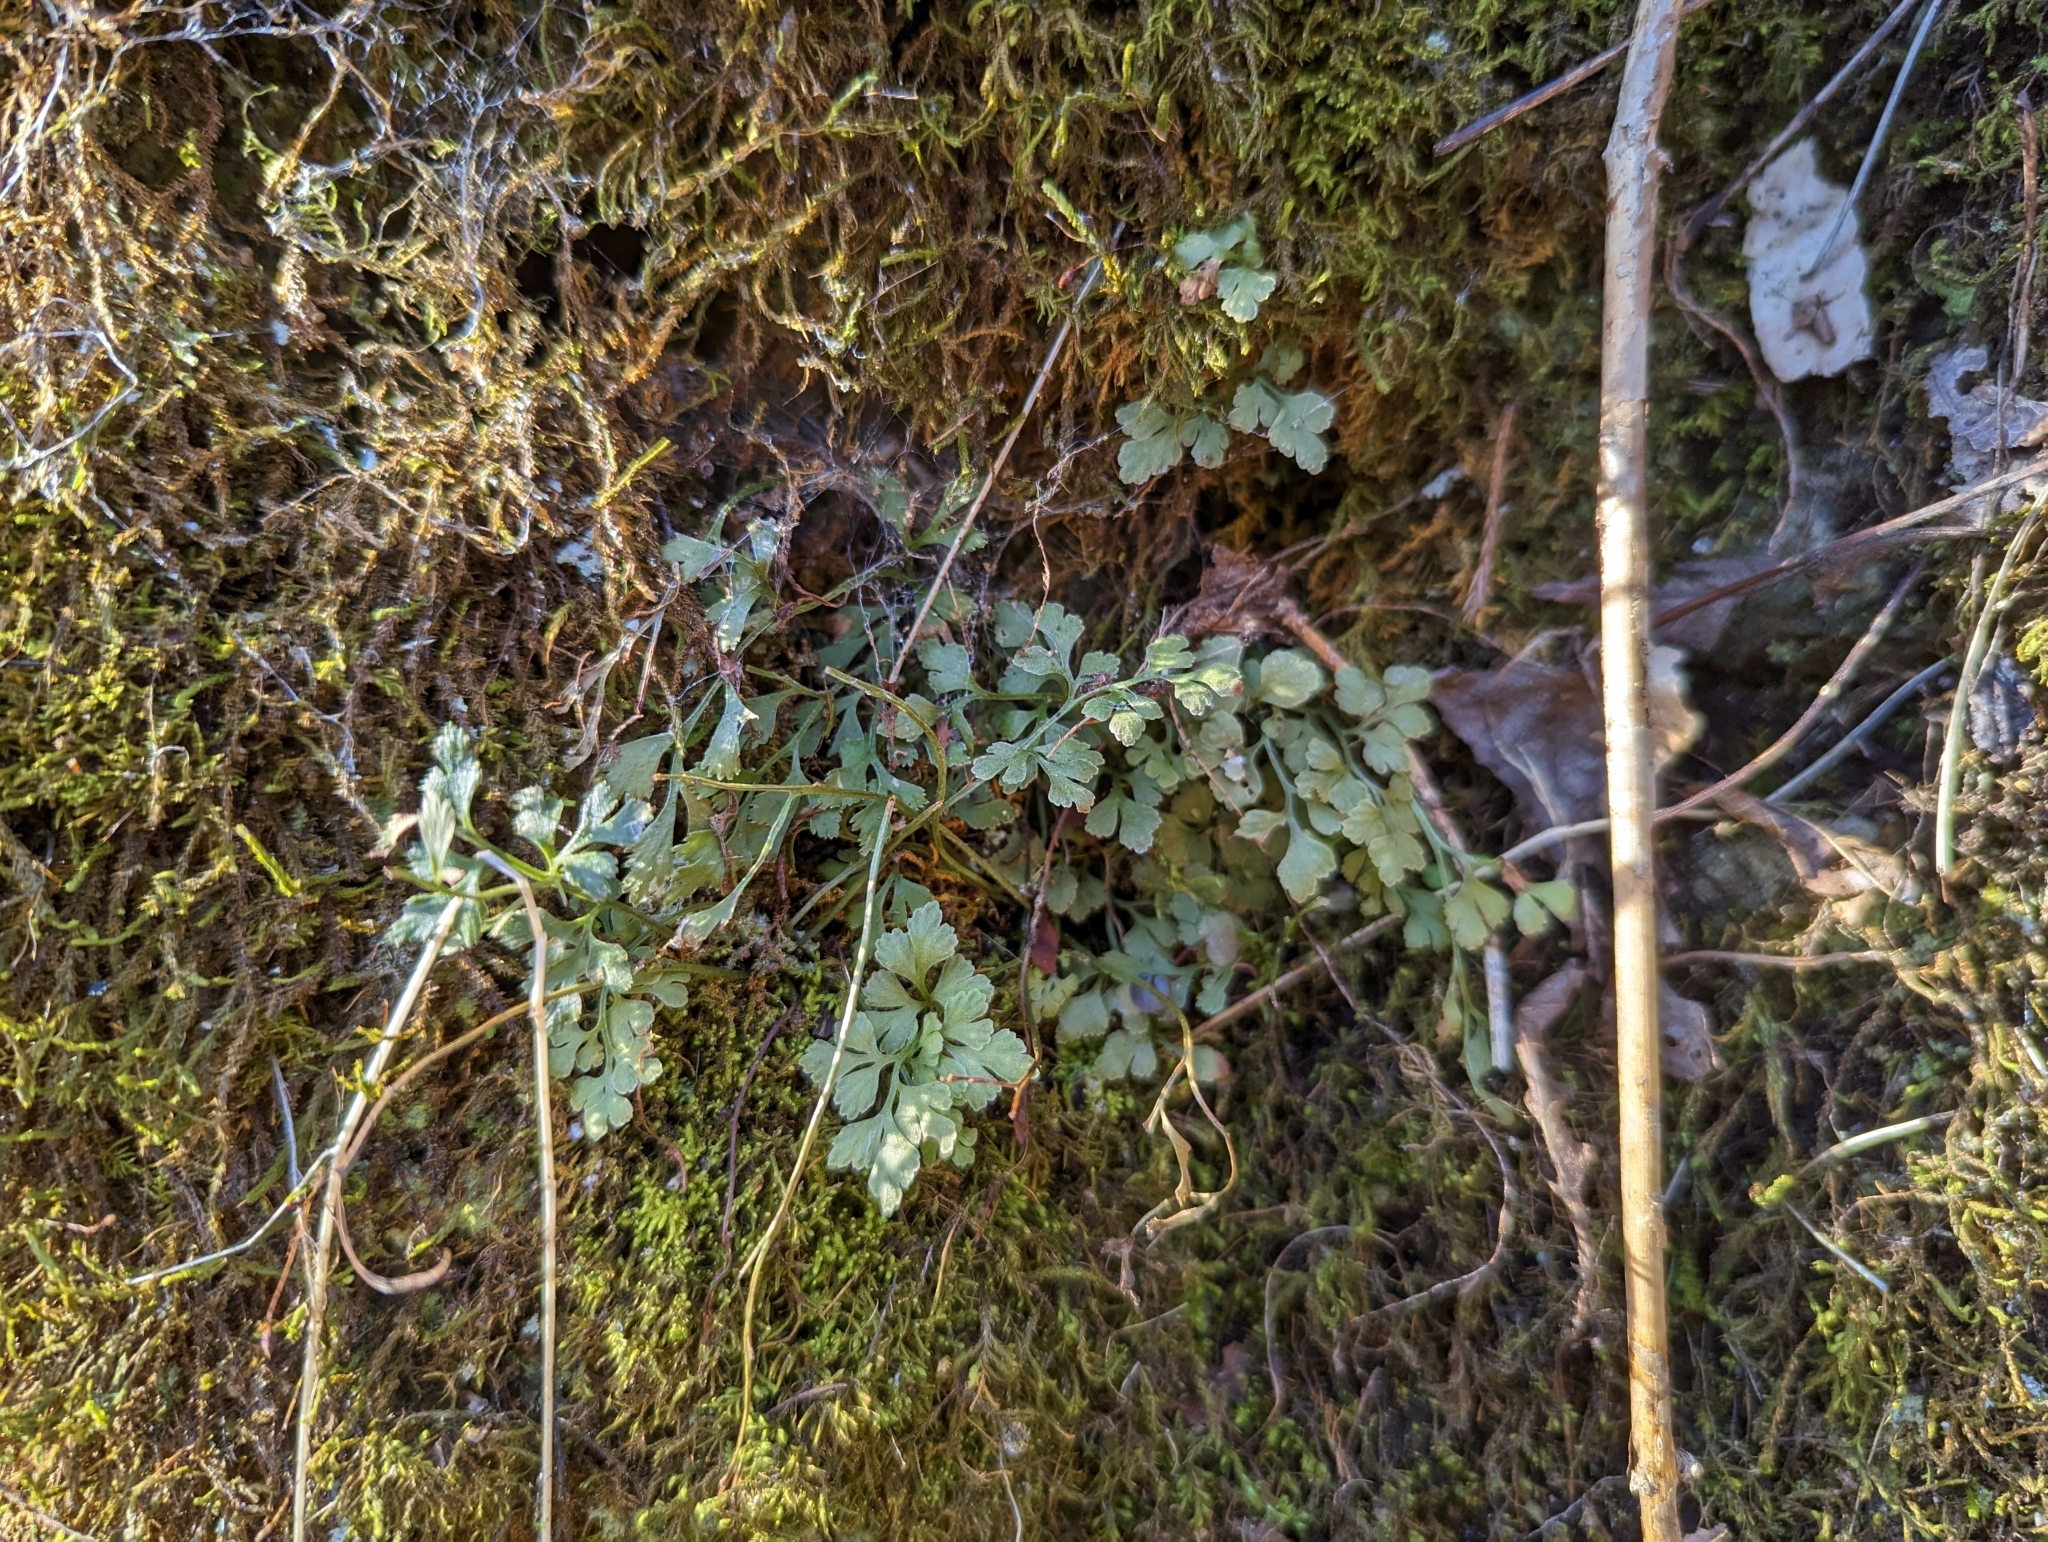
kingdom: Plantae
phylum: Tracheophyta
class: Polypodiopsida
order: Polypodiales
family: Aspleniaceae
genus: Asplenium
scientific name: Asplenium ruta-muraria
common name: Wall-rue
